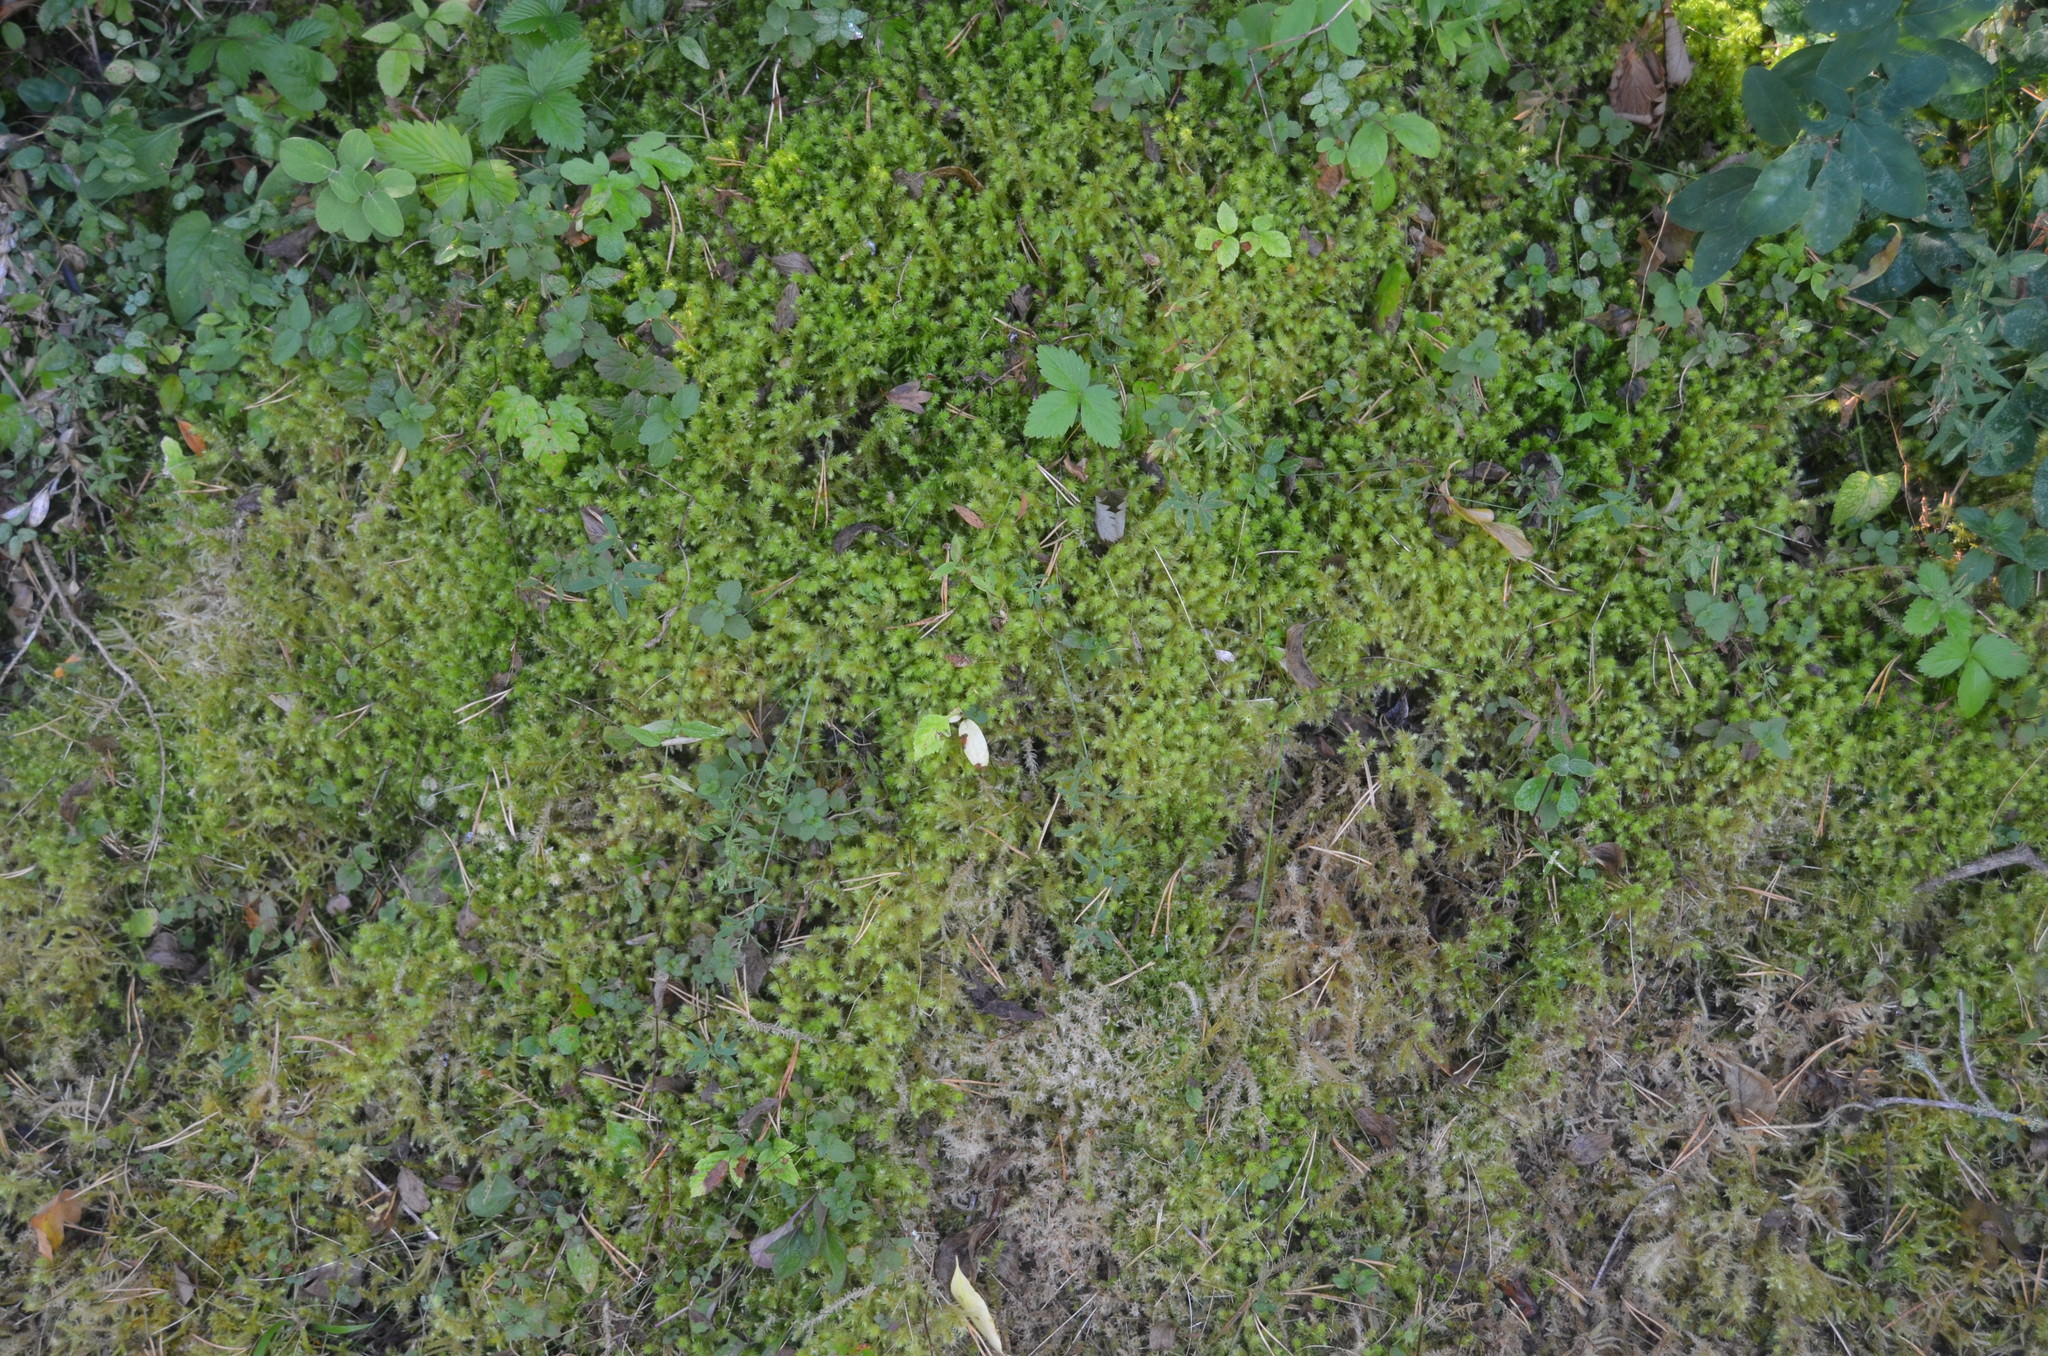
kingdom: Plantae
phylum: Bryophyta
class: Bryopsida
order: Hypnales
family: Hylocomiaceae
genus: Hylocomiadelphus
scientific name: Hylocomiadelphus triquetrus
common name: Rough goose neck moss
